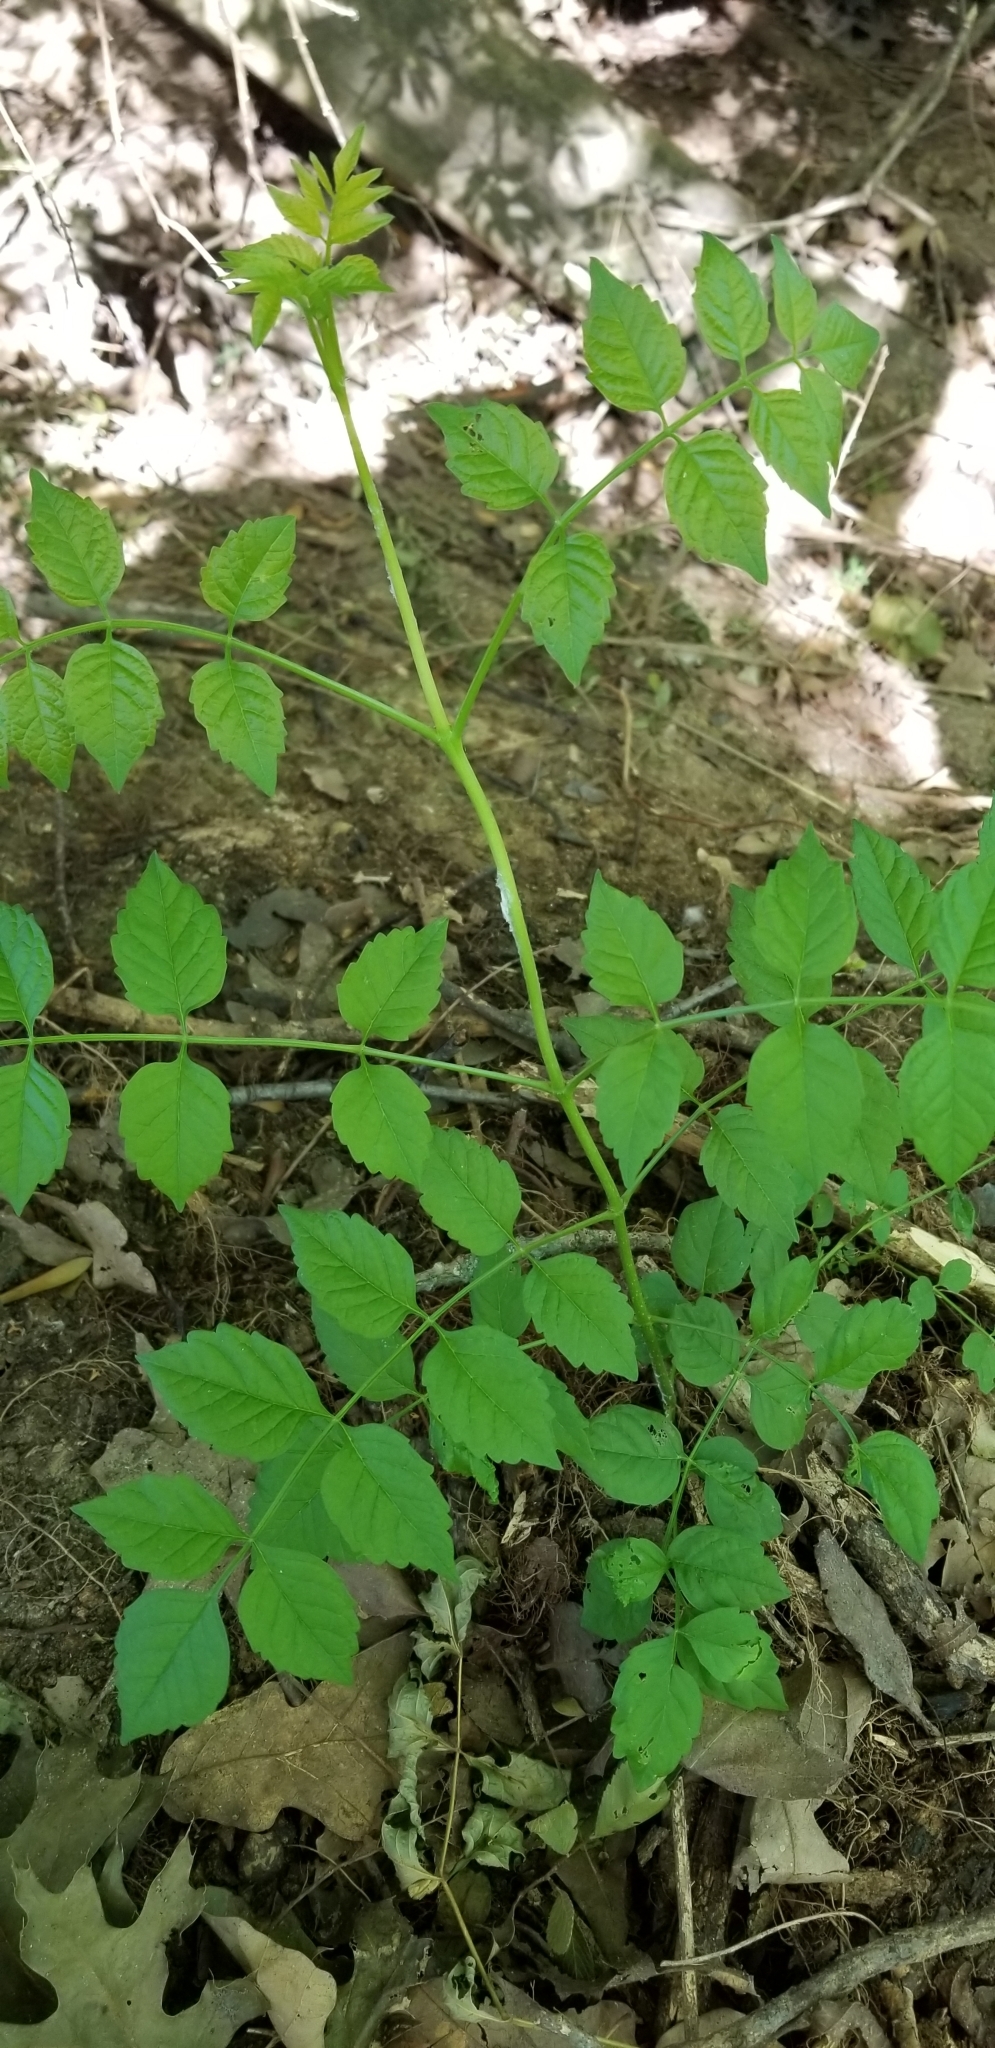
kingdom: Plantae
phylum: Tracheophyta
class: Magnoliopsida
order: Lamiales
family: Bignoniaceae
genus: Campsis
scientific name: Campsis radicans
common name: Trumpet-creeper
